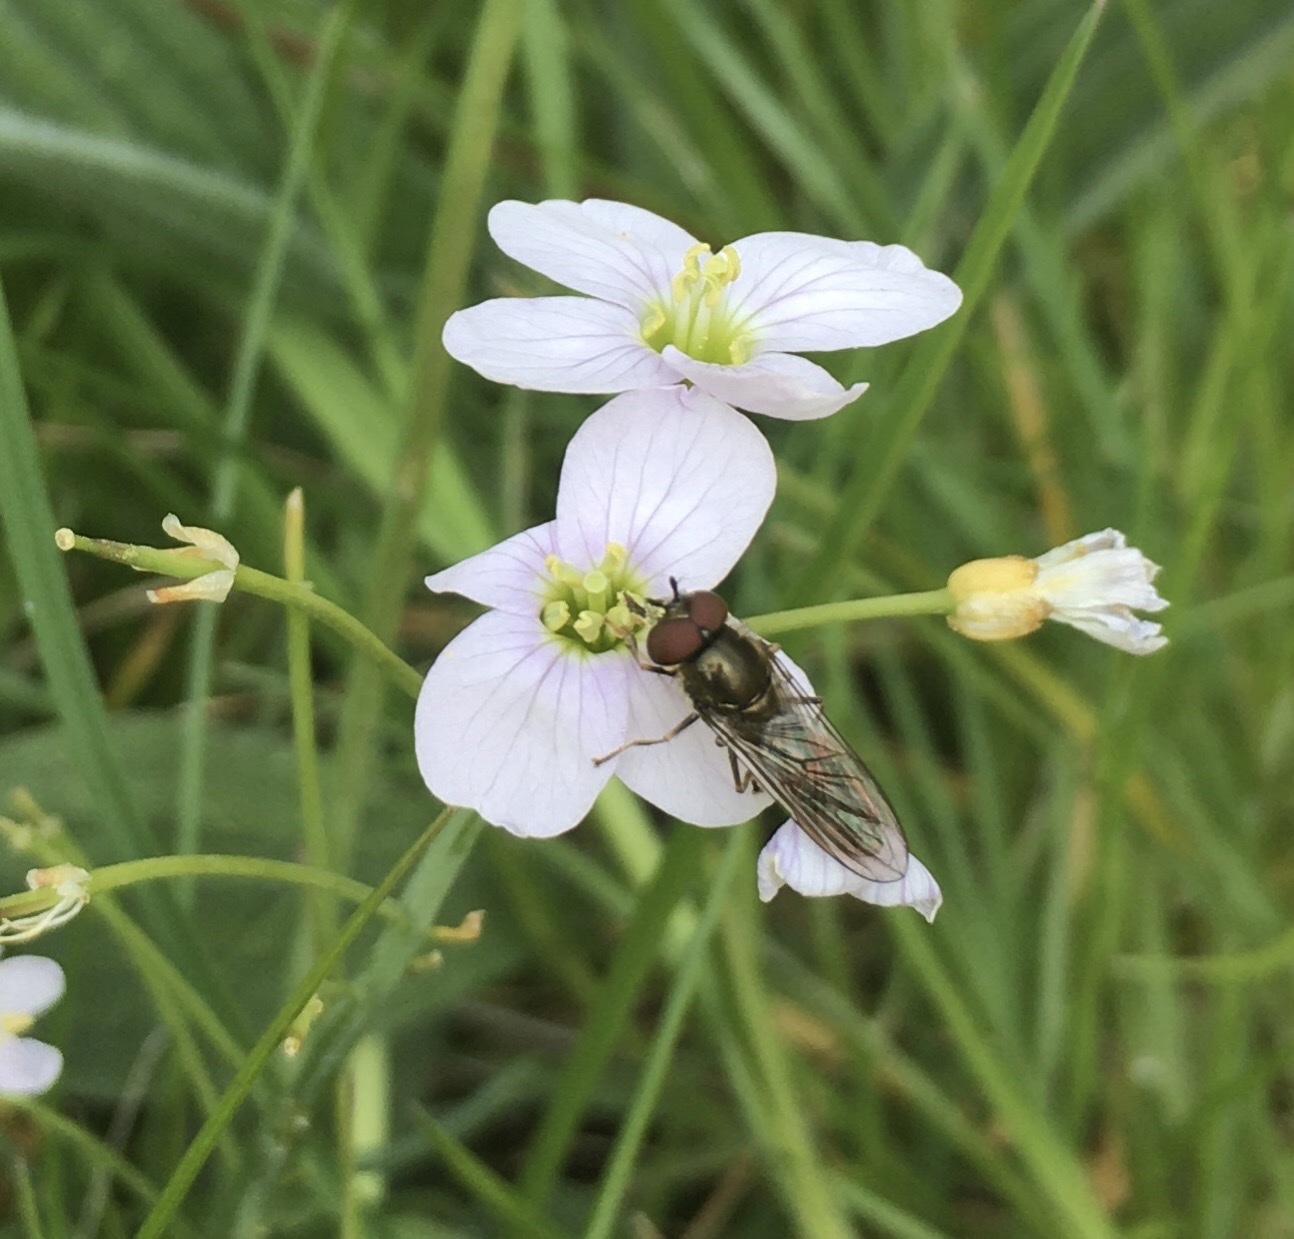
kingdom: Animalia
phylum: Arthropoda
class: Insecta
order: Diptera
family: Syrphidae
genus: Platycheirus
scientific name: Platycheirus
